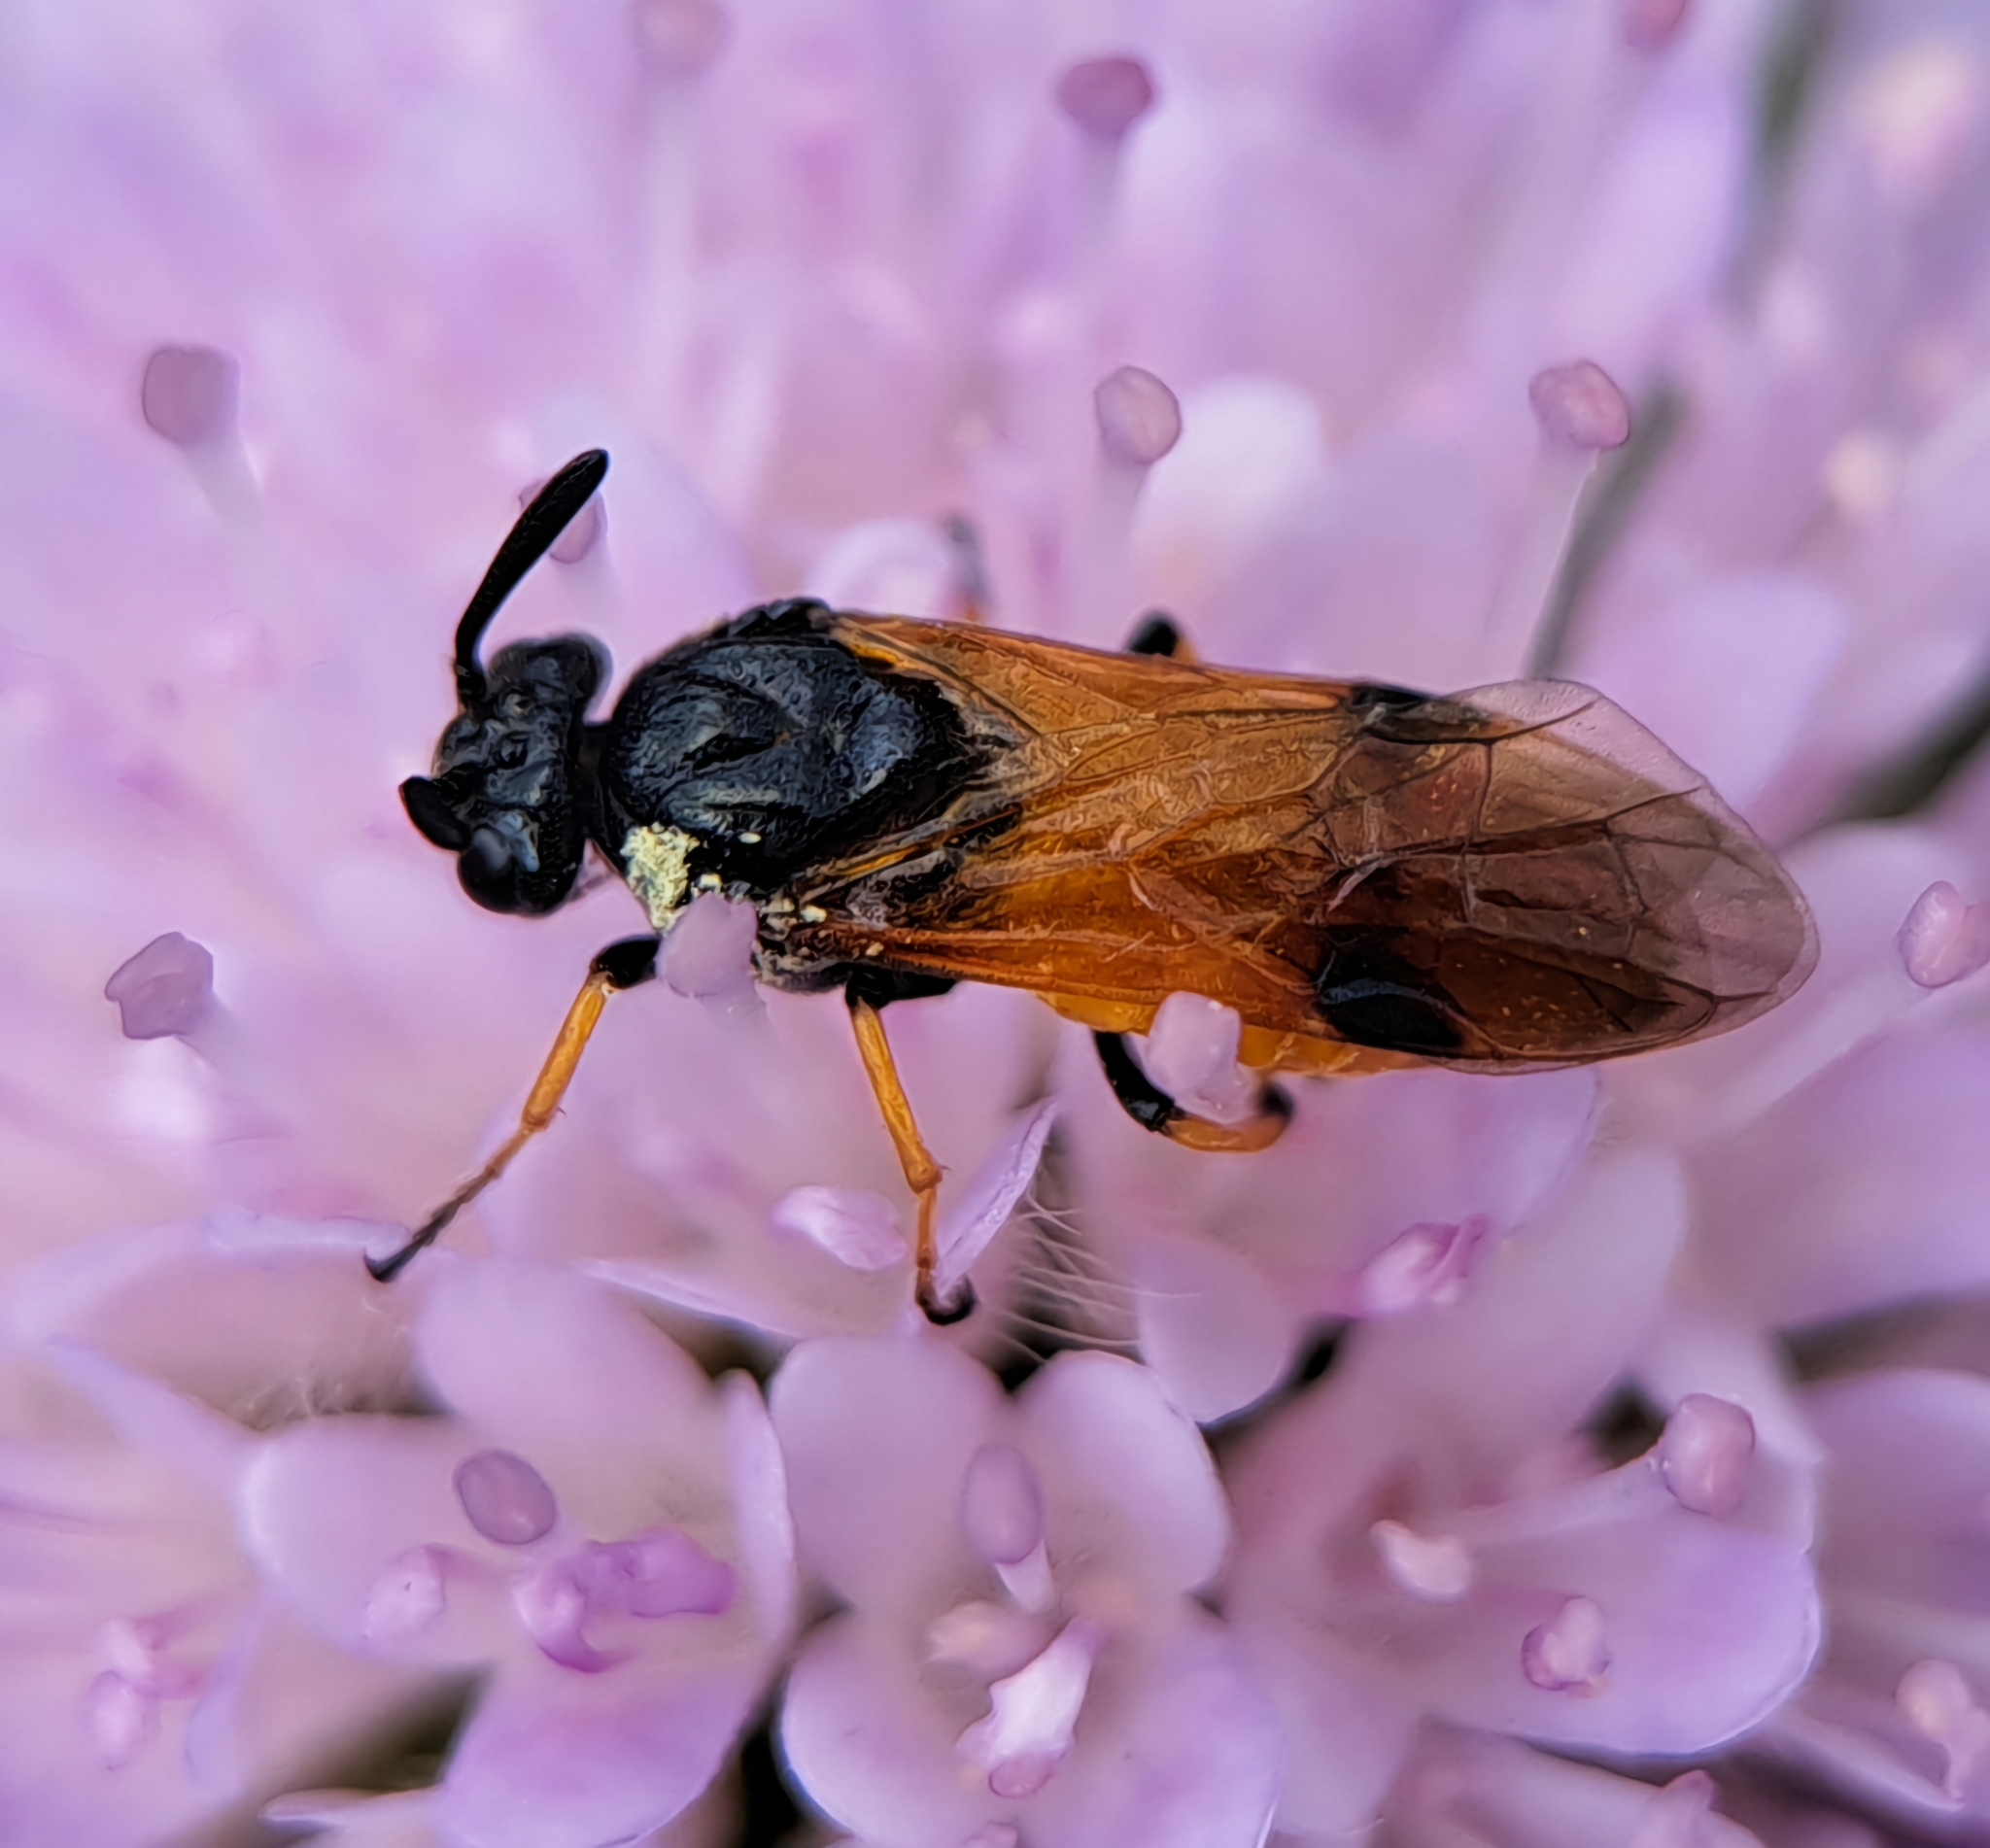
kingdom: Animalia
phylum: Arthropoda
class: Insecta
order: Hymenoptera
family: Argidae
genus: Arge
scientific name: Arge melanochra
